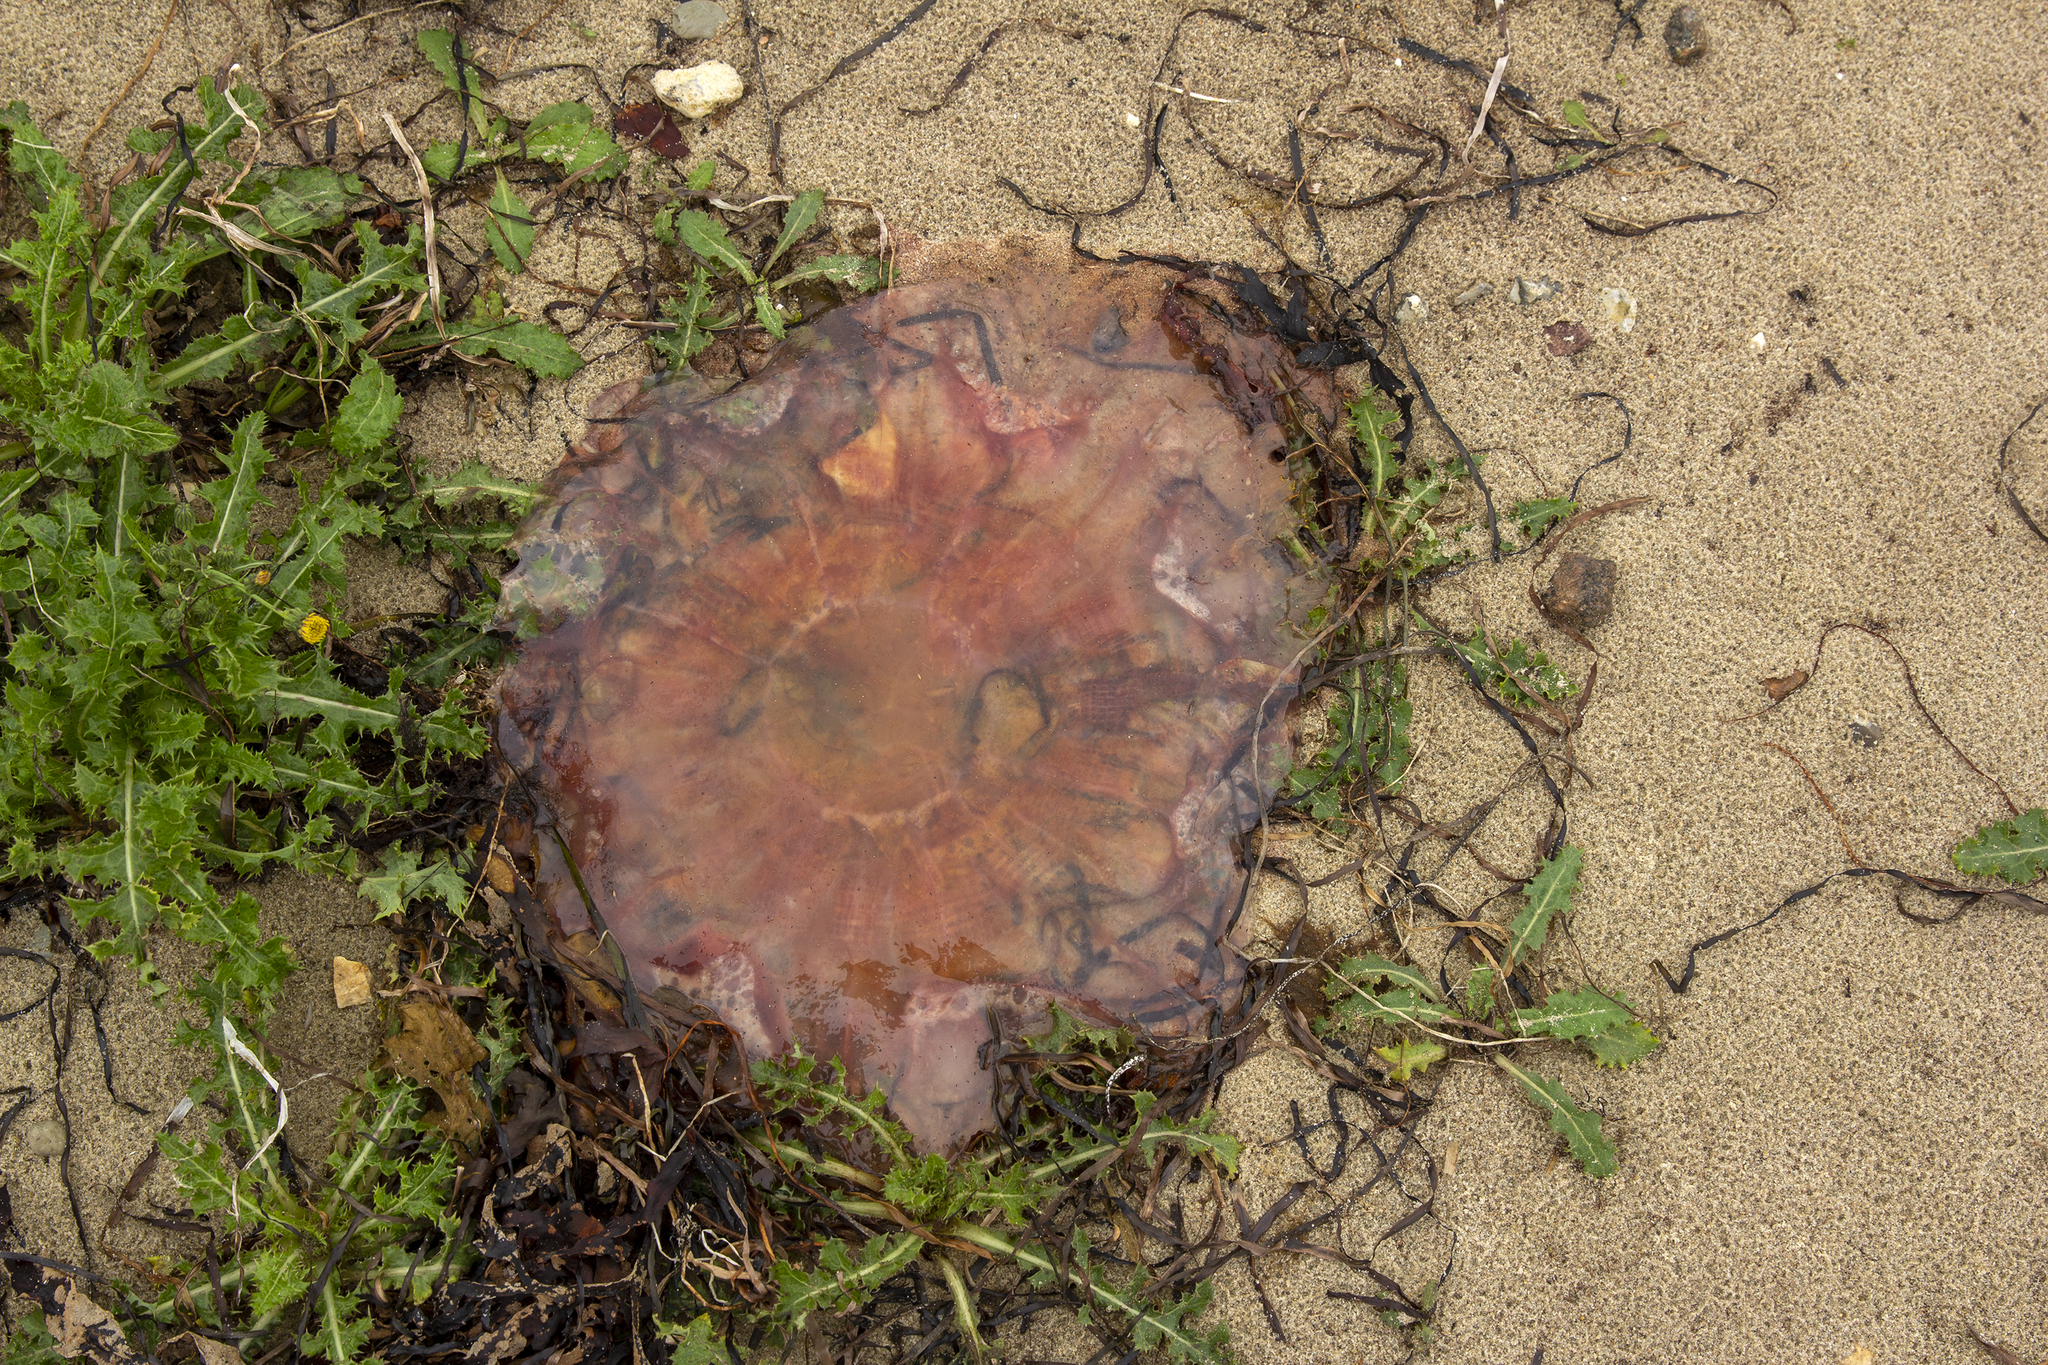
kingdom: Animalia
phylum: Cnidaria
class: Scyphozoa
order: Semaeostomeae
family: Cyaneidae
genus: Cyanea
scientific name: Cyanea capillata
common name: Lion's mane jellyfish
